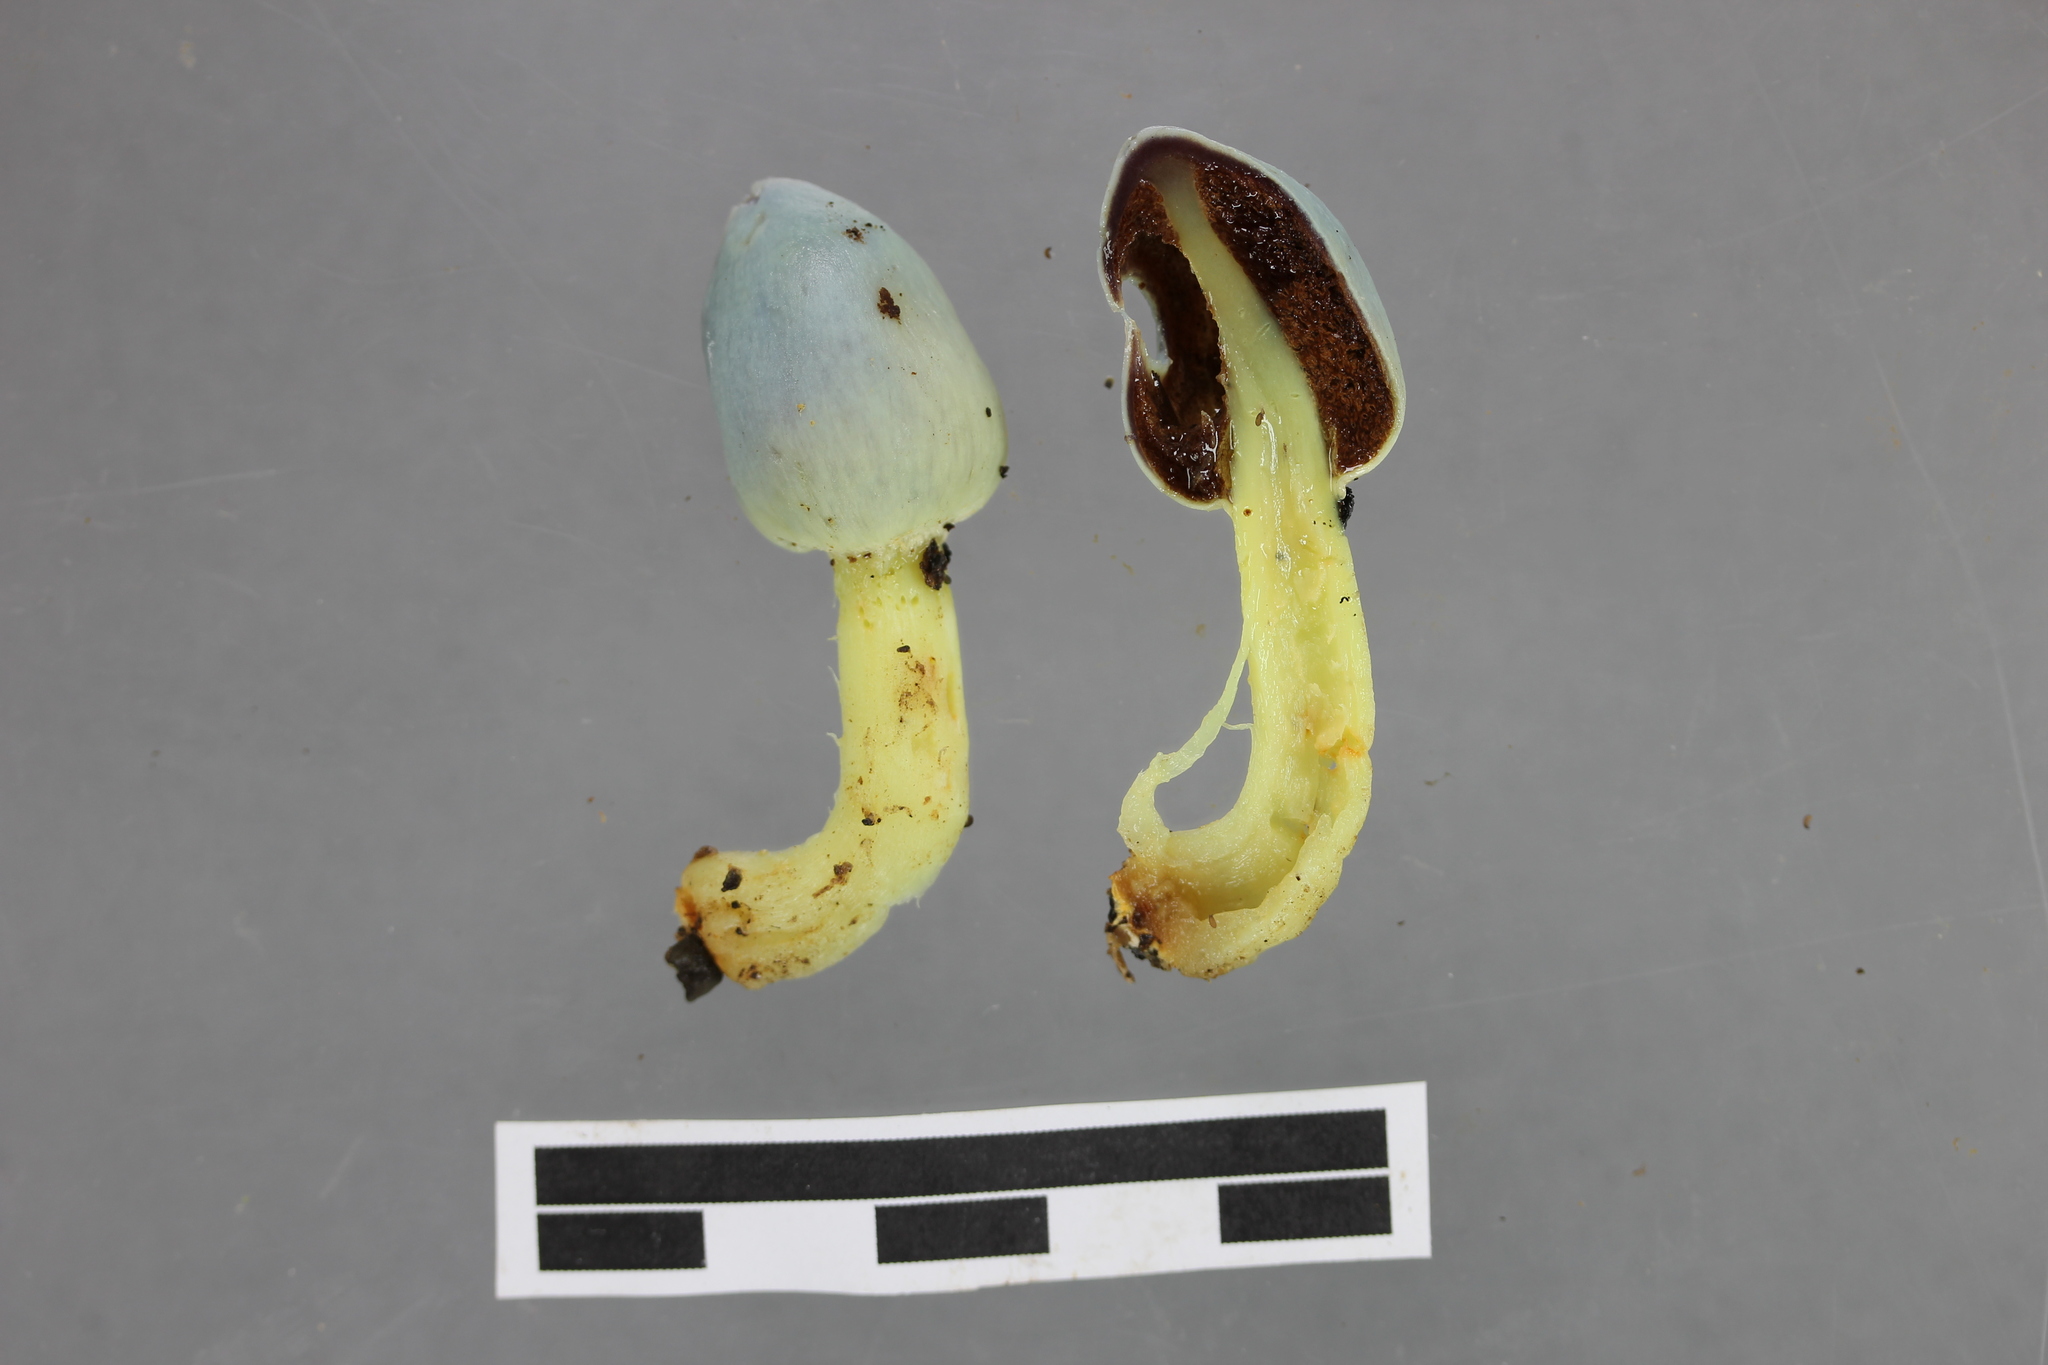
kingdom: Fungi
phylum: Basidiomycota
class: Agaricomycetes
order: Agaricales
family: Agaricaceae
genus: Clavogaster
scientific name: Clavogaster virescens
